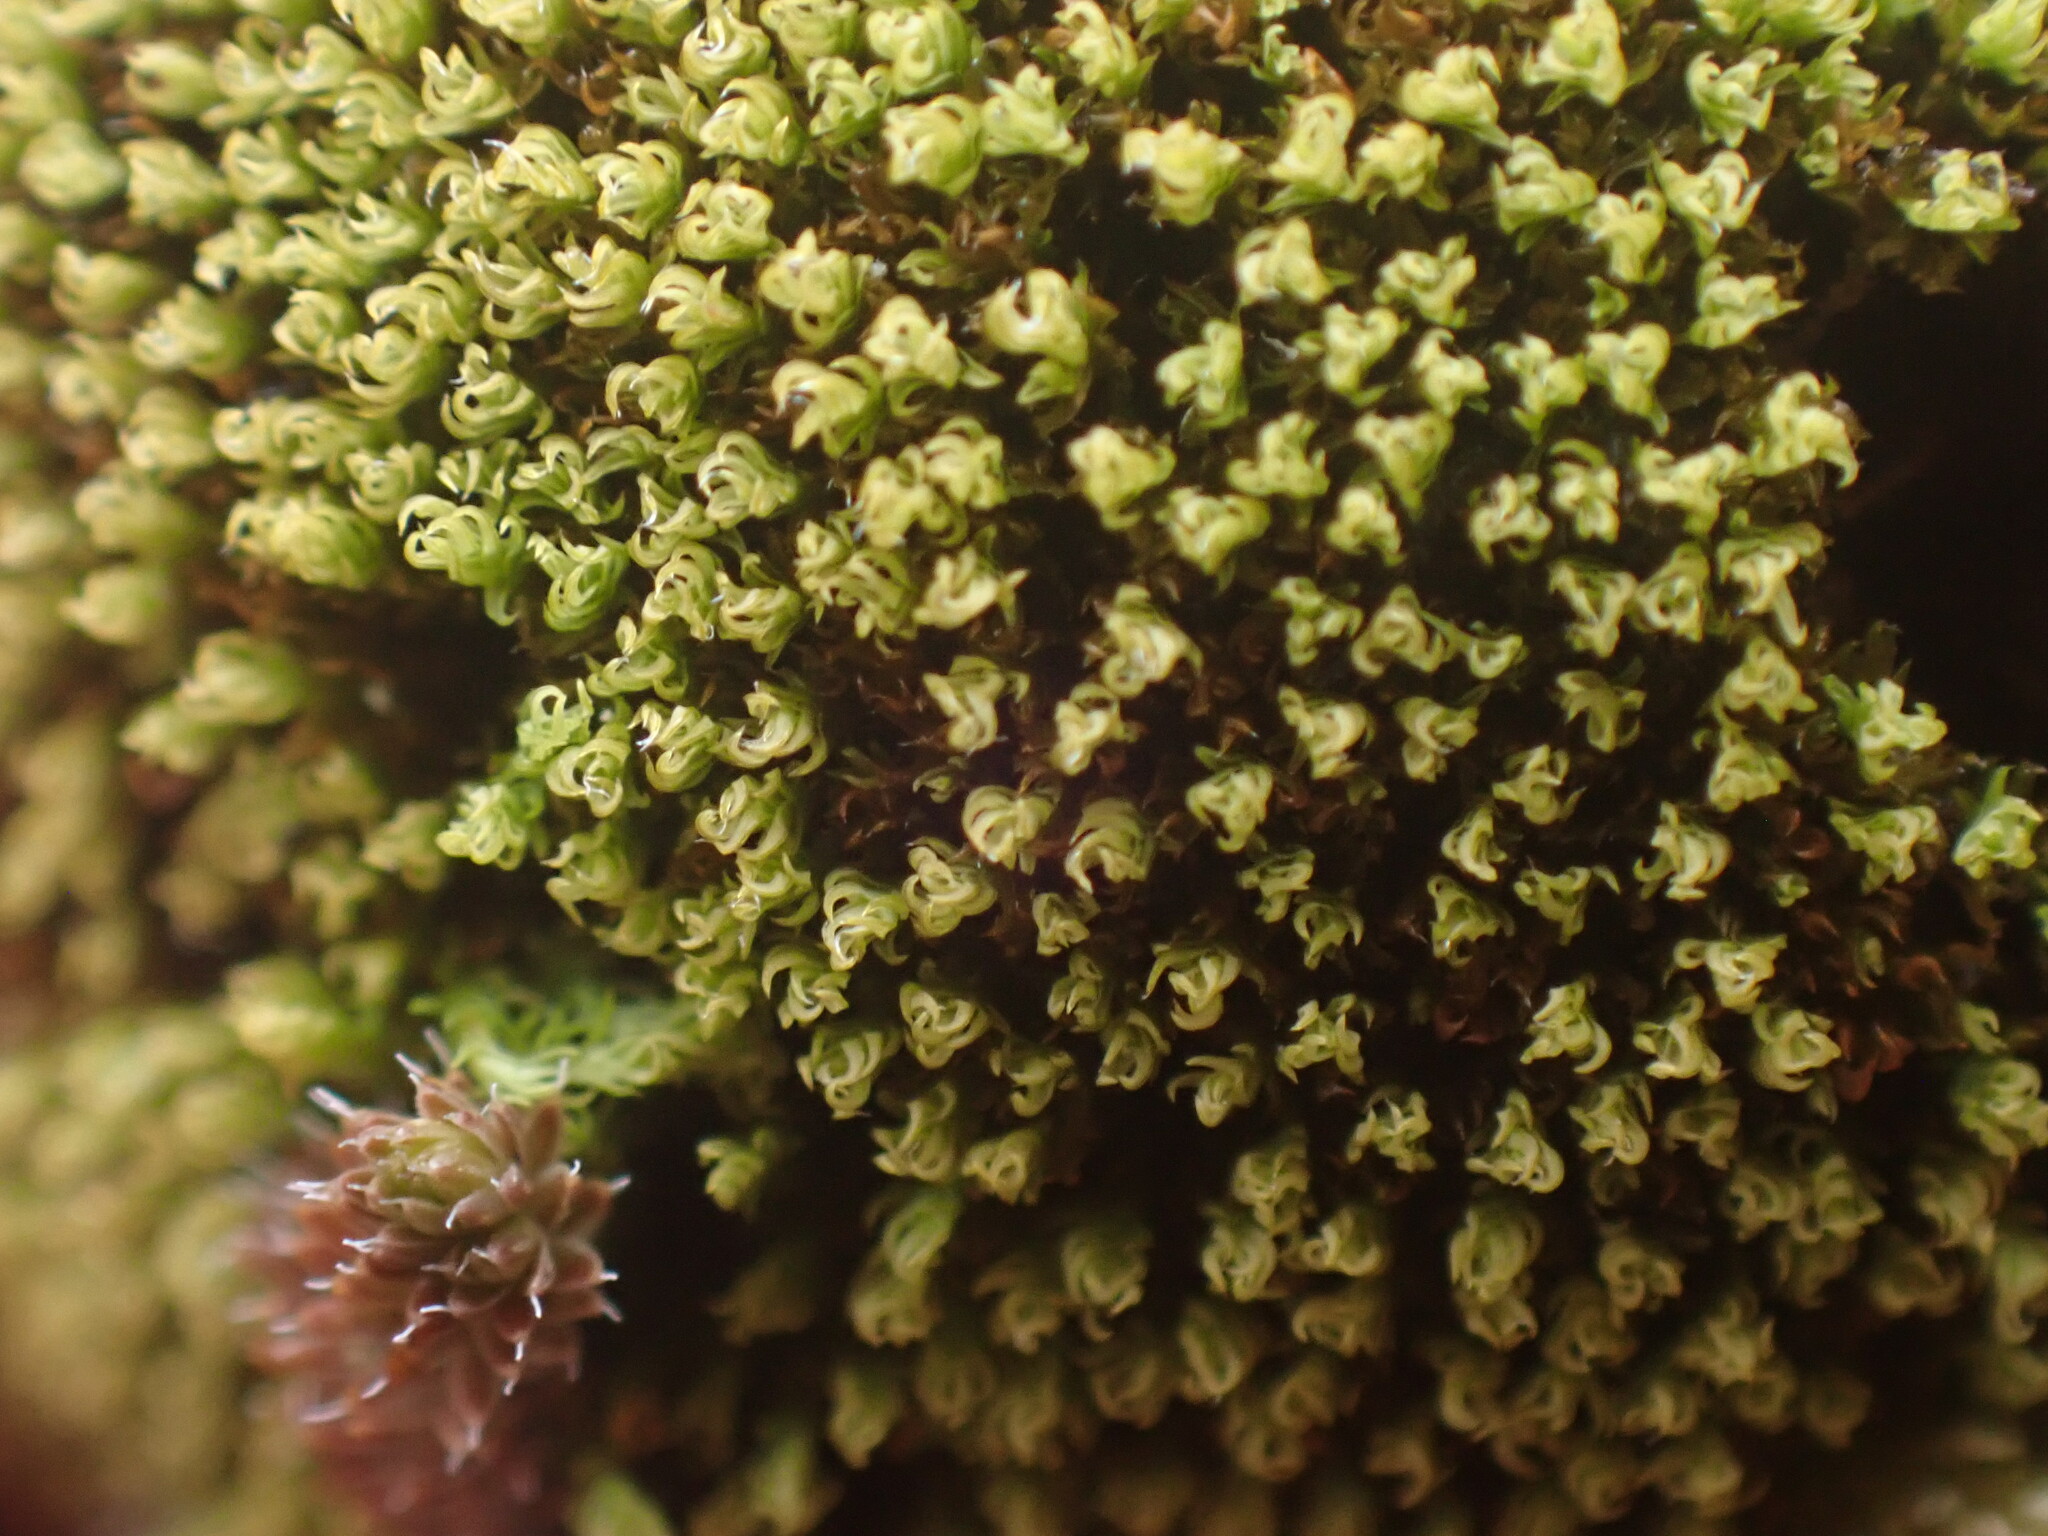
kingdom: Plantae
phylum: Bryophyta
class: Bryopsida
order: Grimmiales
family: Grimmiaceae
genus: Grimmia
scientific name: Grimmia torquata
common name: Twisted grimmia
